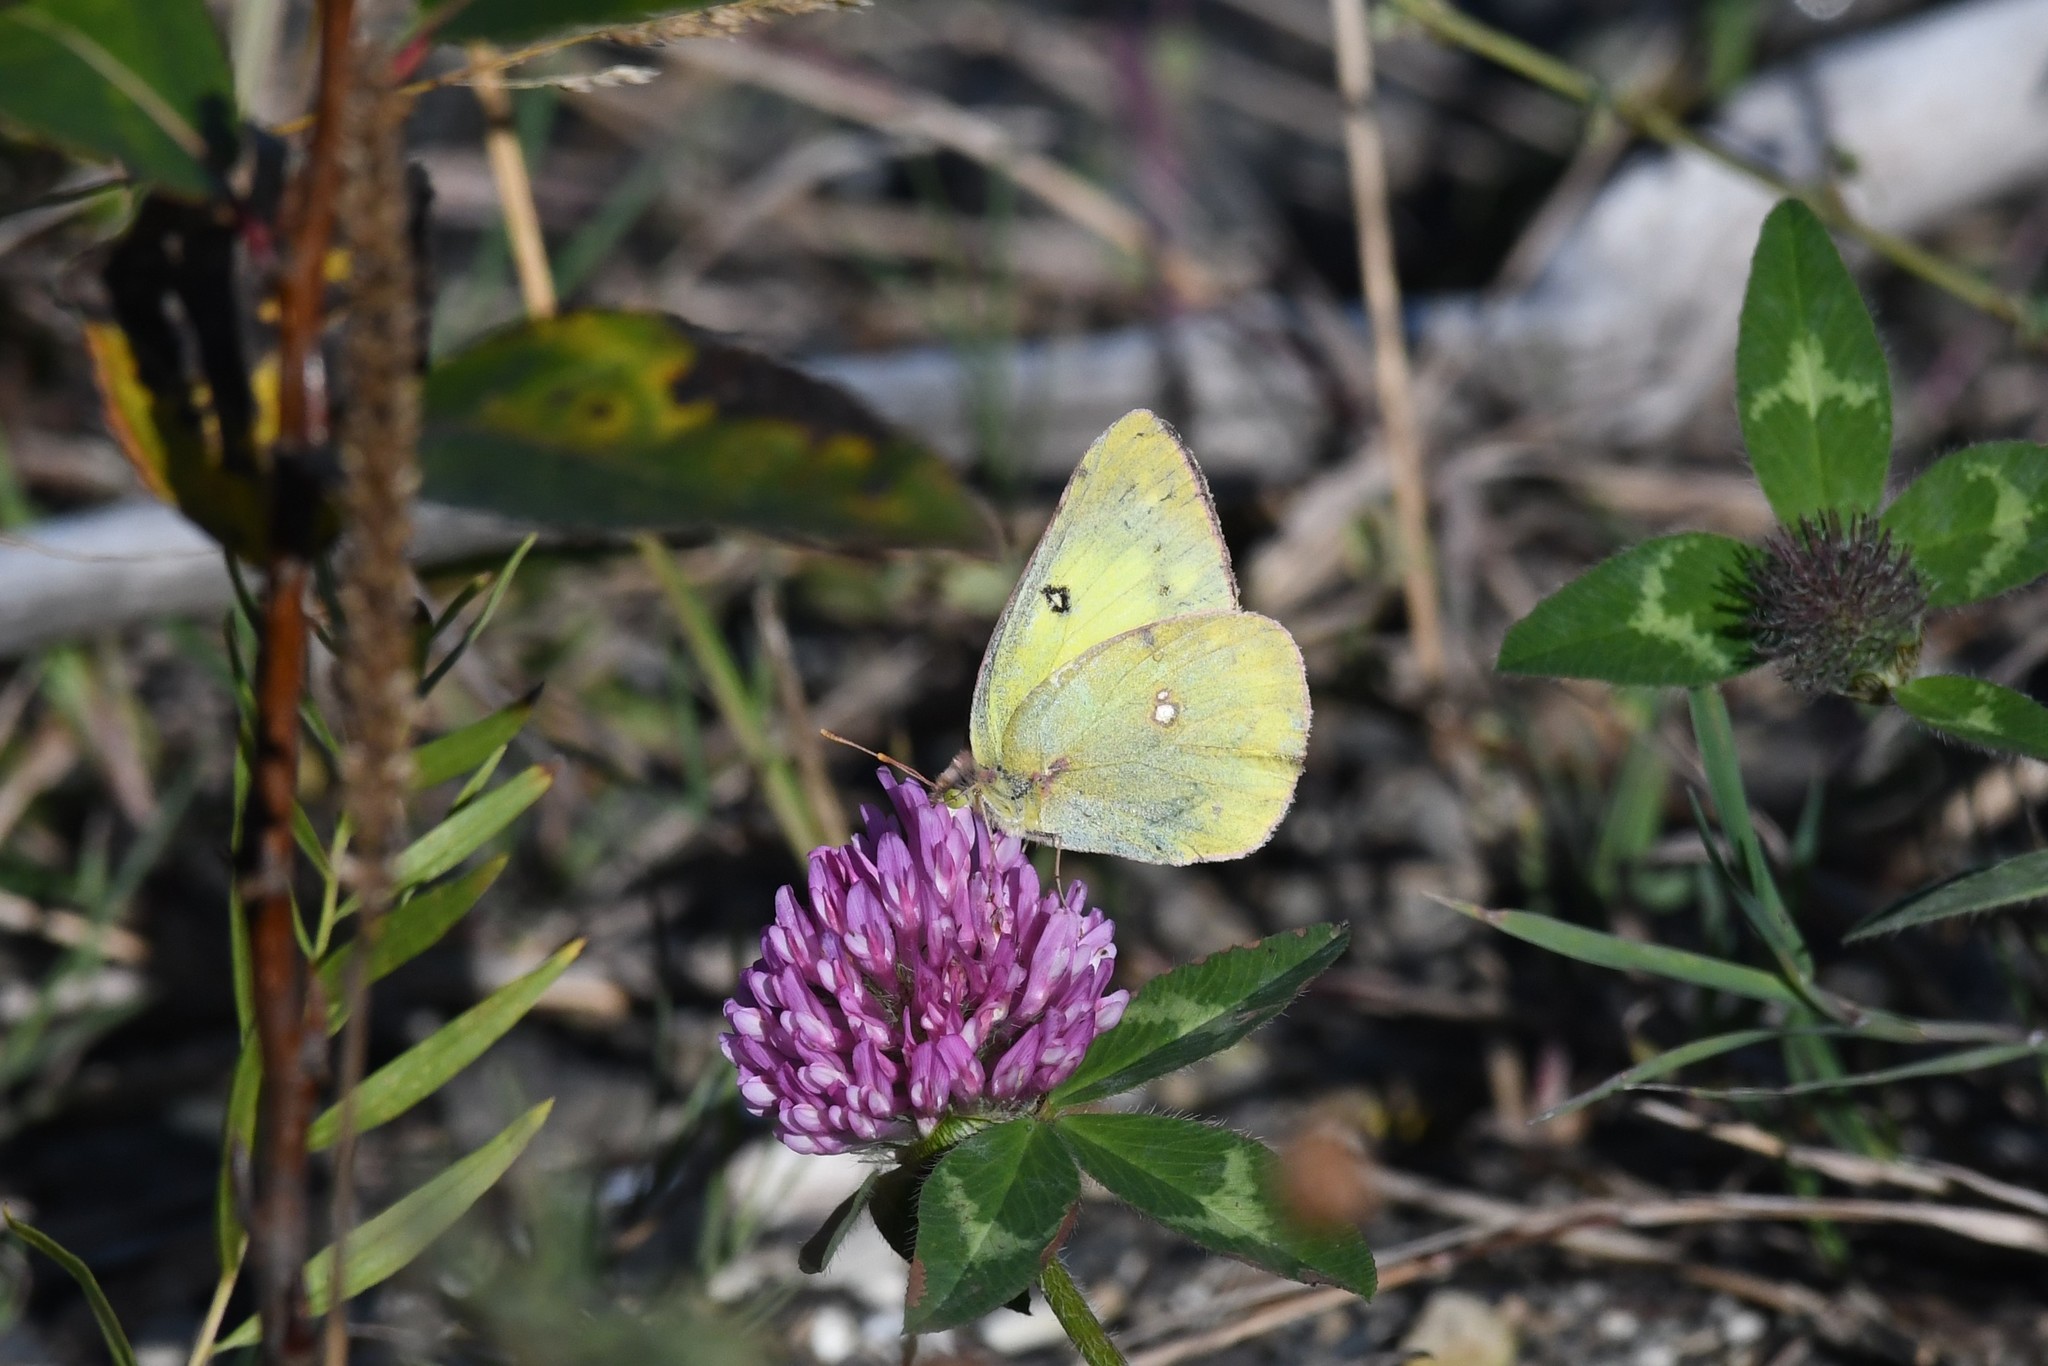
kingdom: Animalia
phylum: Arthropoda
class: Insecta
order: Lepidoptera
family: Pieridae
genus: Colias
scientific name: Colias philodice
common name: Clouded sulphur
